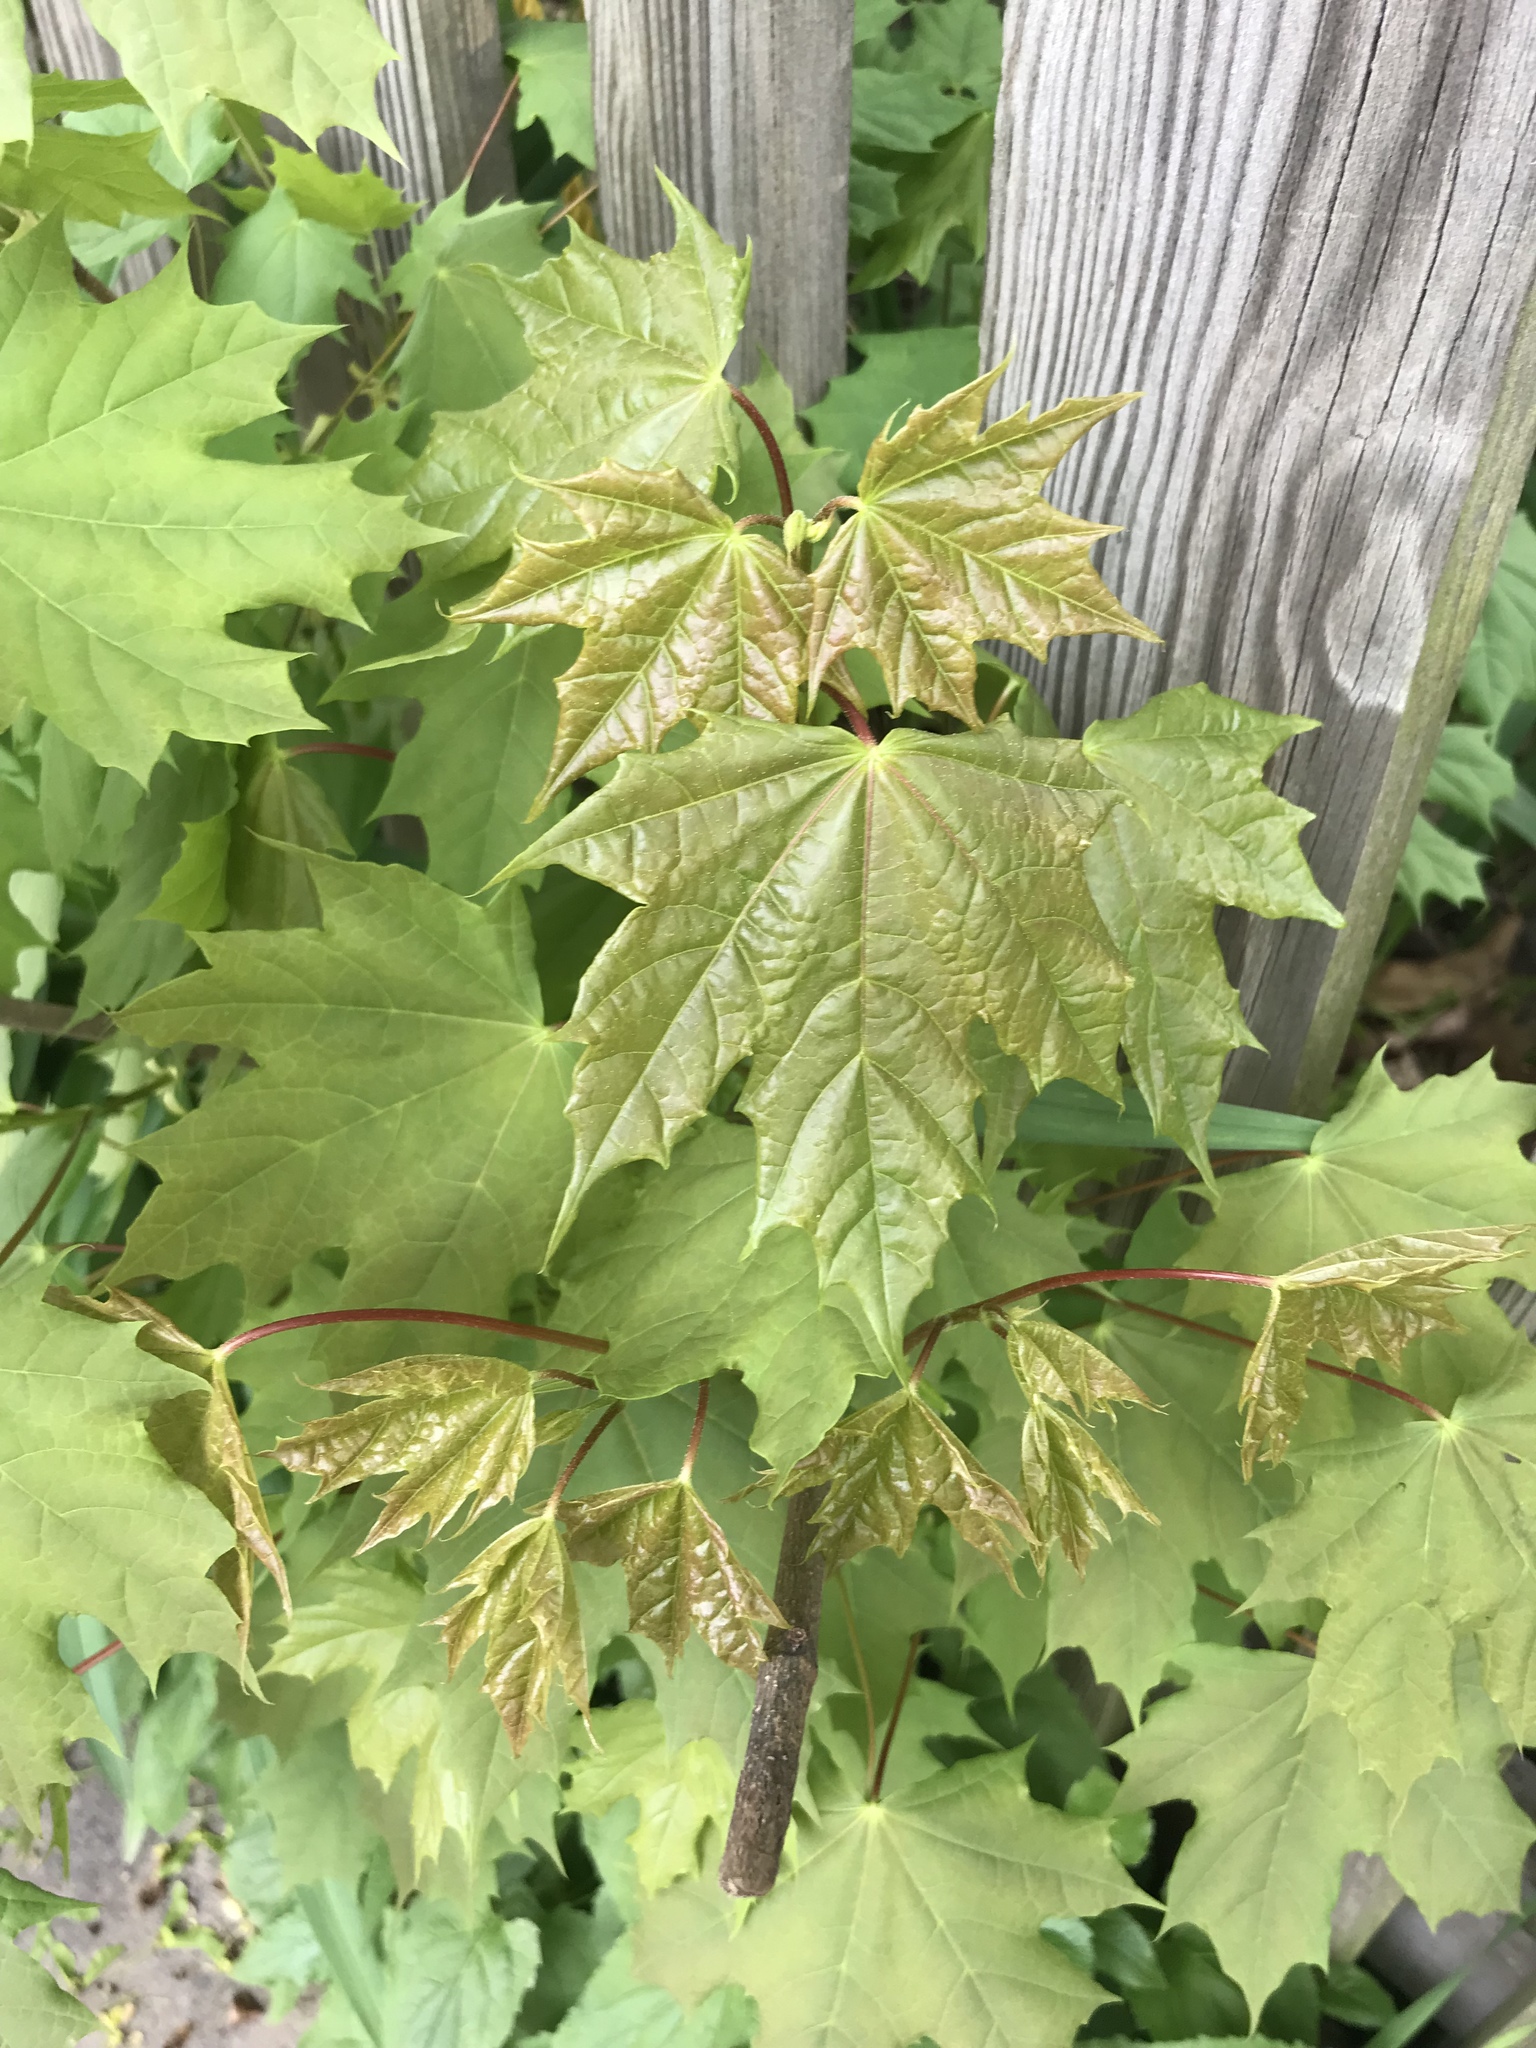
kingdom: Plantae
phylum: Tracheophyta
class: Magnoliopsida
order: Sapindales
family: Sapindaceae
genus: Acer
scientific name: Acer rubrum
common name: Red maple
